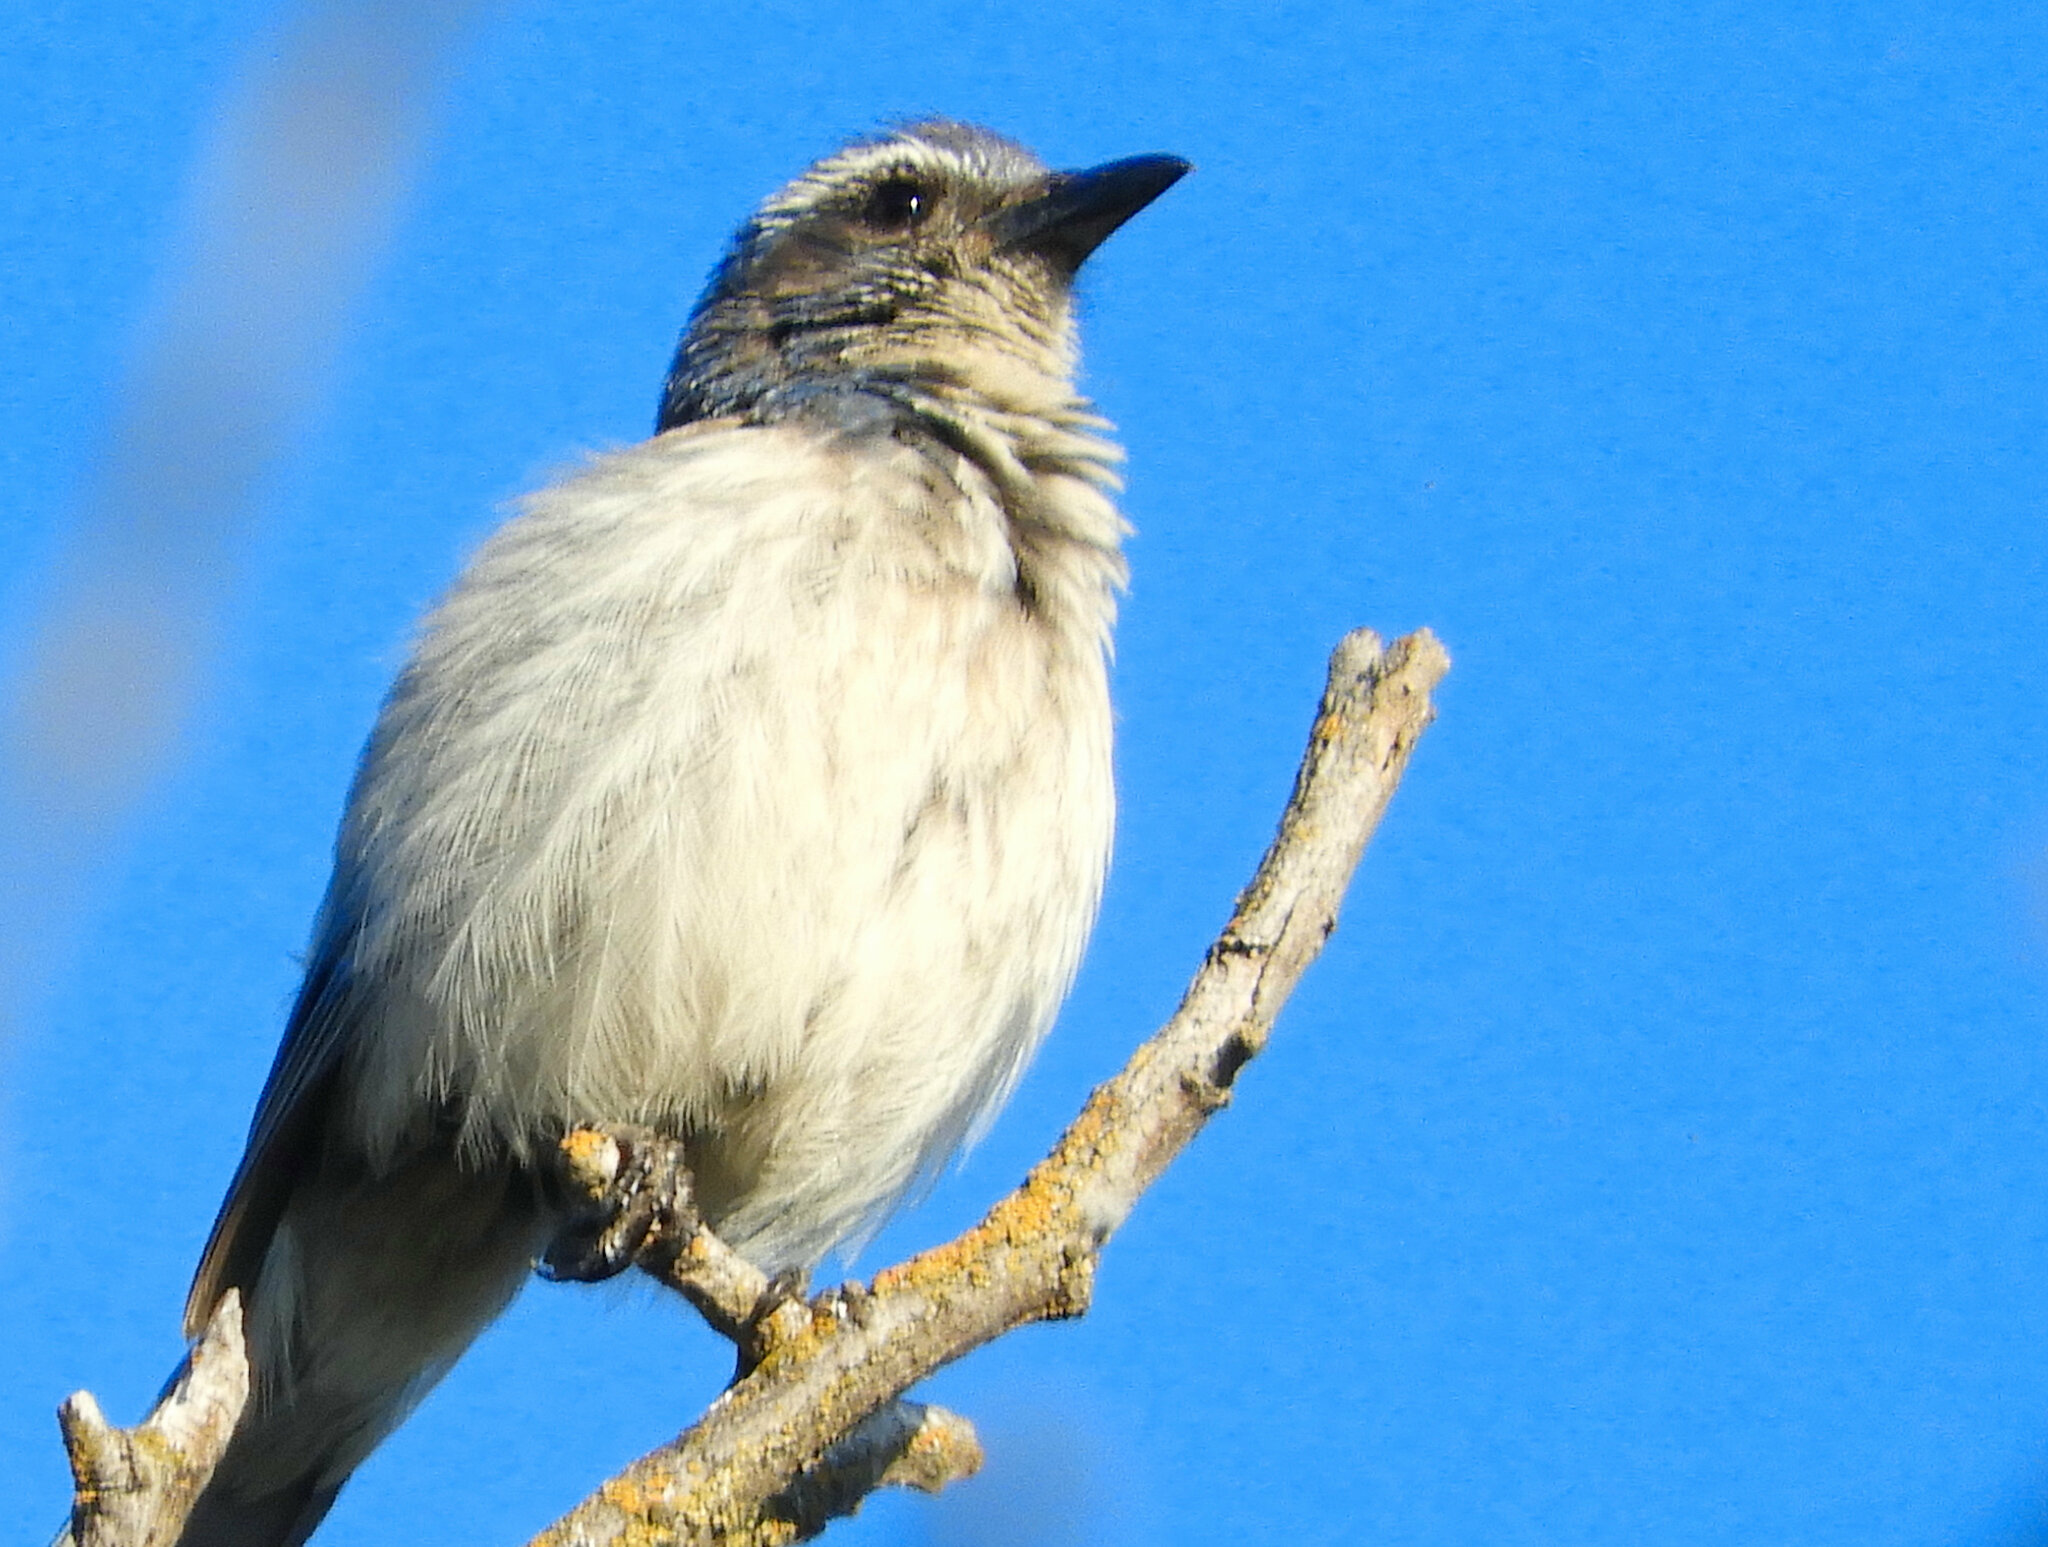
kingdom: Animalia
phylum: Chordata
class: Aves
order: Passeriformes
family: Corvidae
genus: Aphelocoma
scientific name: Aphelocoma californica
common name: California scrub-jay
